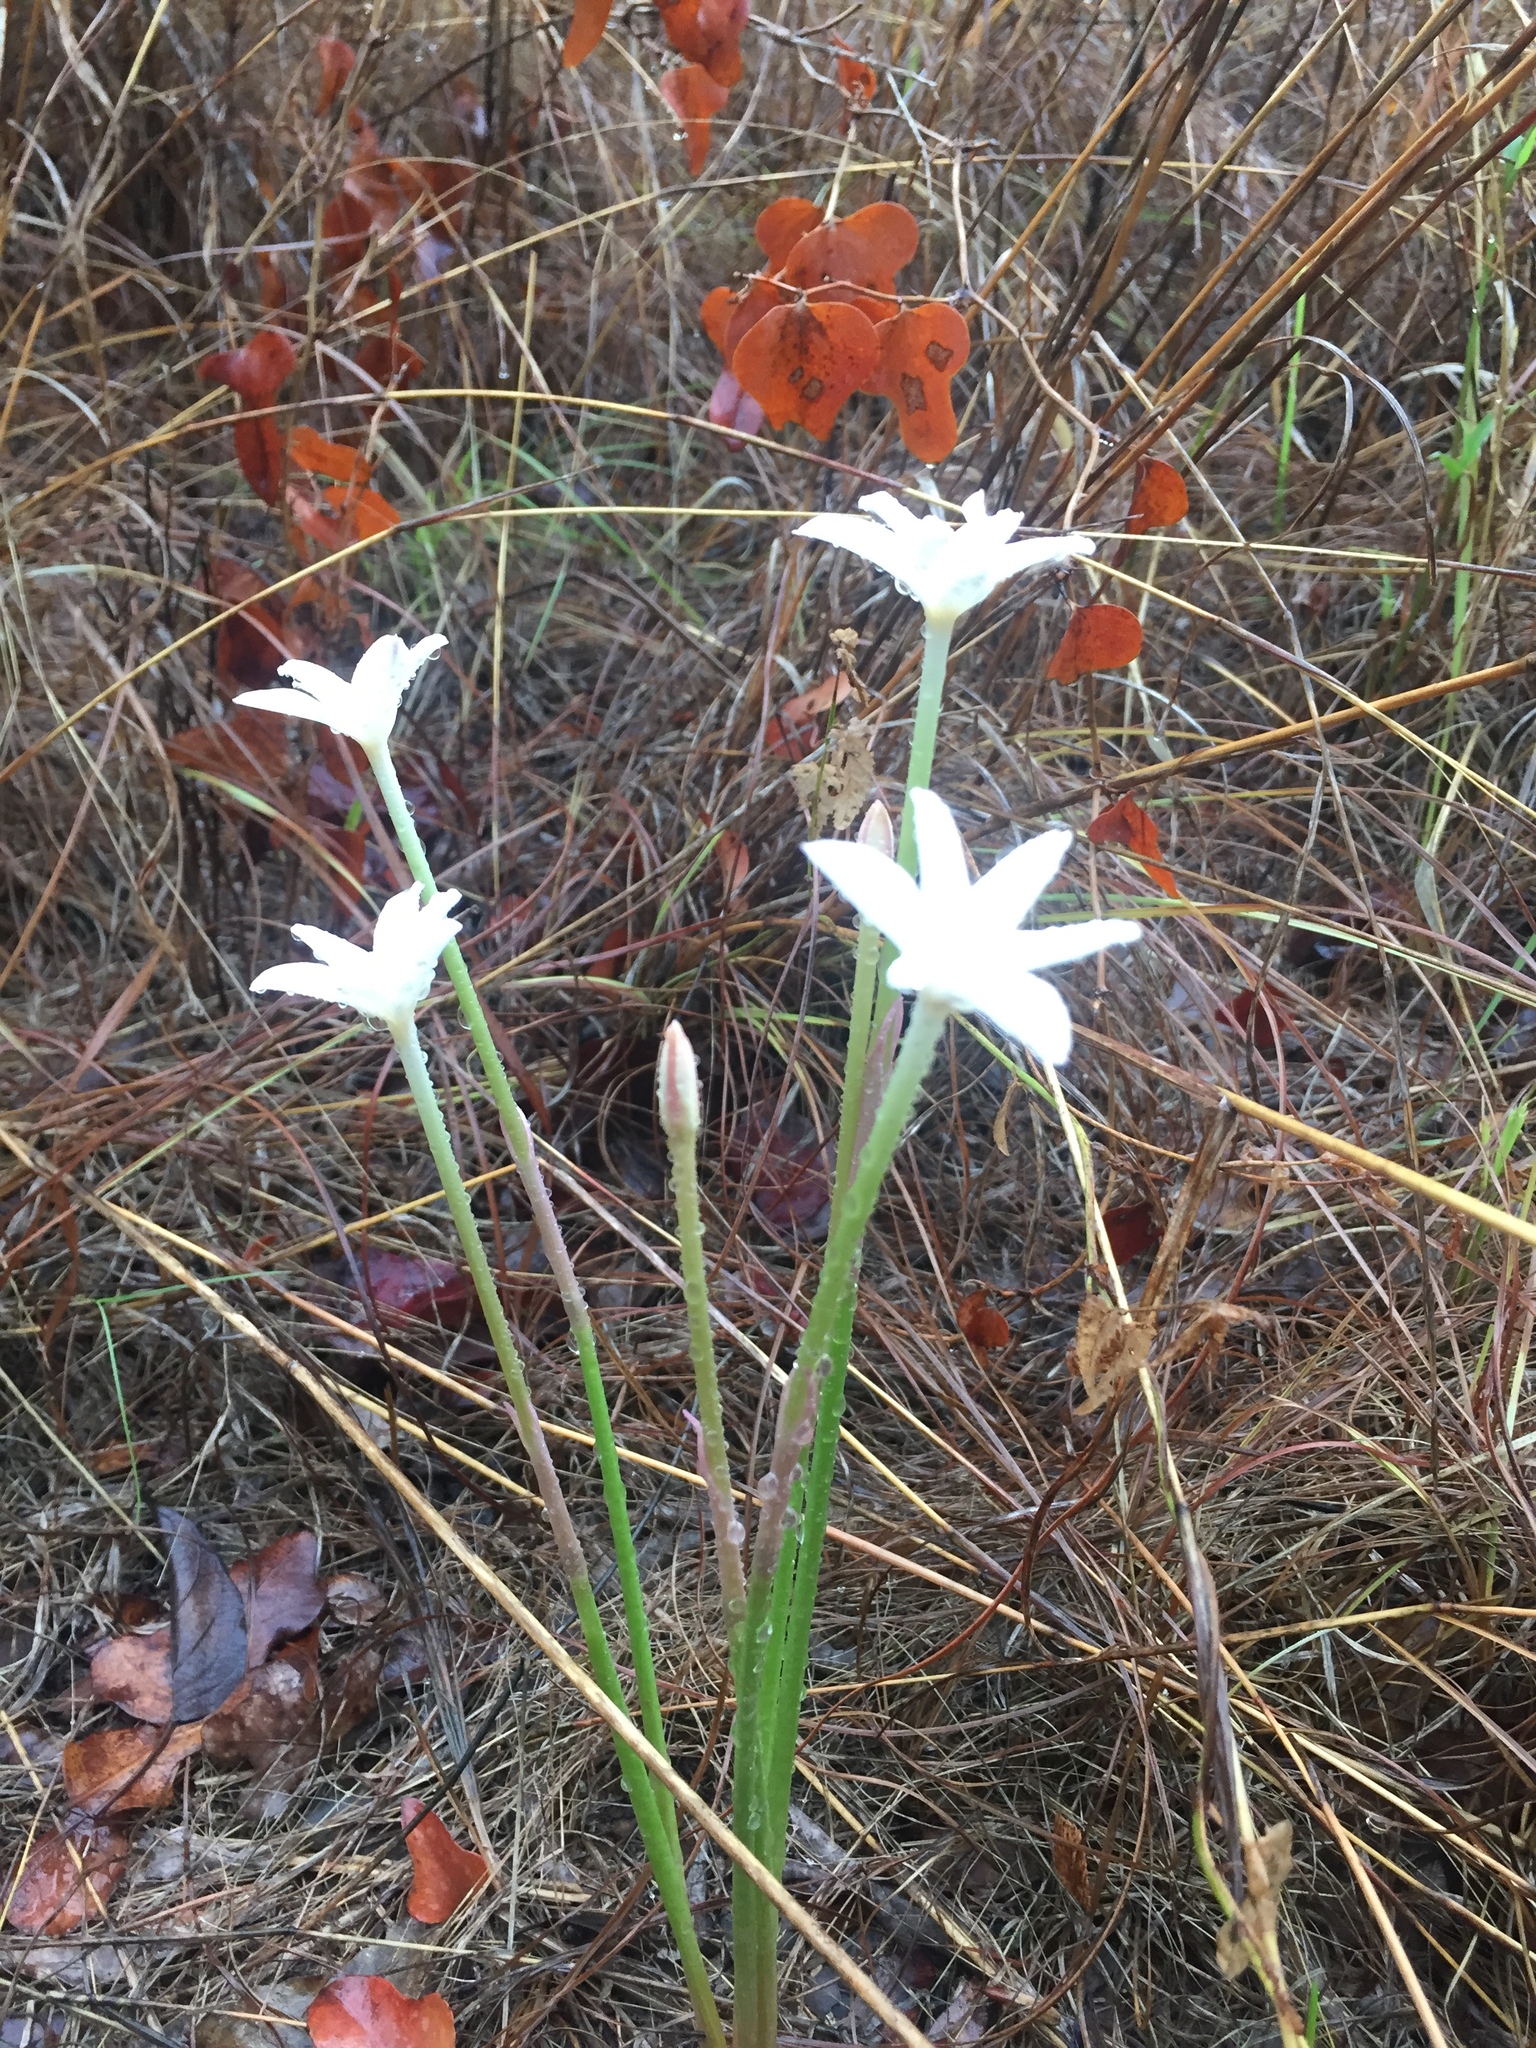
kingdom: Plantae
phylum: Tracheophyta
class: Liliopsida
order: Asparagales
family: Amaryllidaceae
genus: Zephyranthes
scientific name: Zephyranthes chlorosolen
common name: Evening rain-lily
